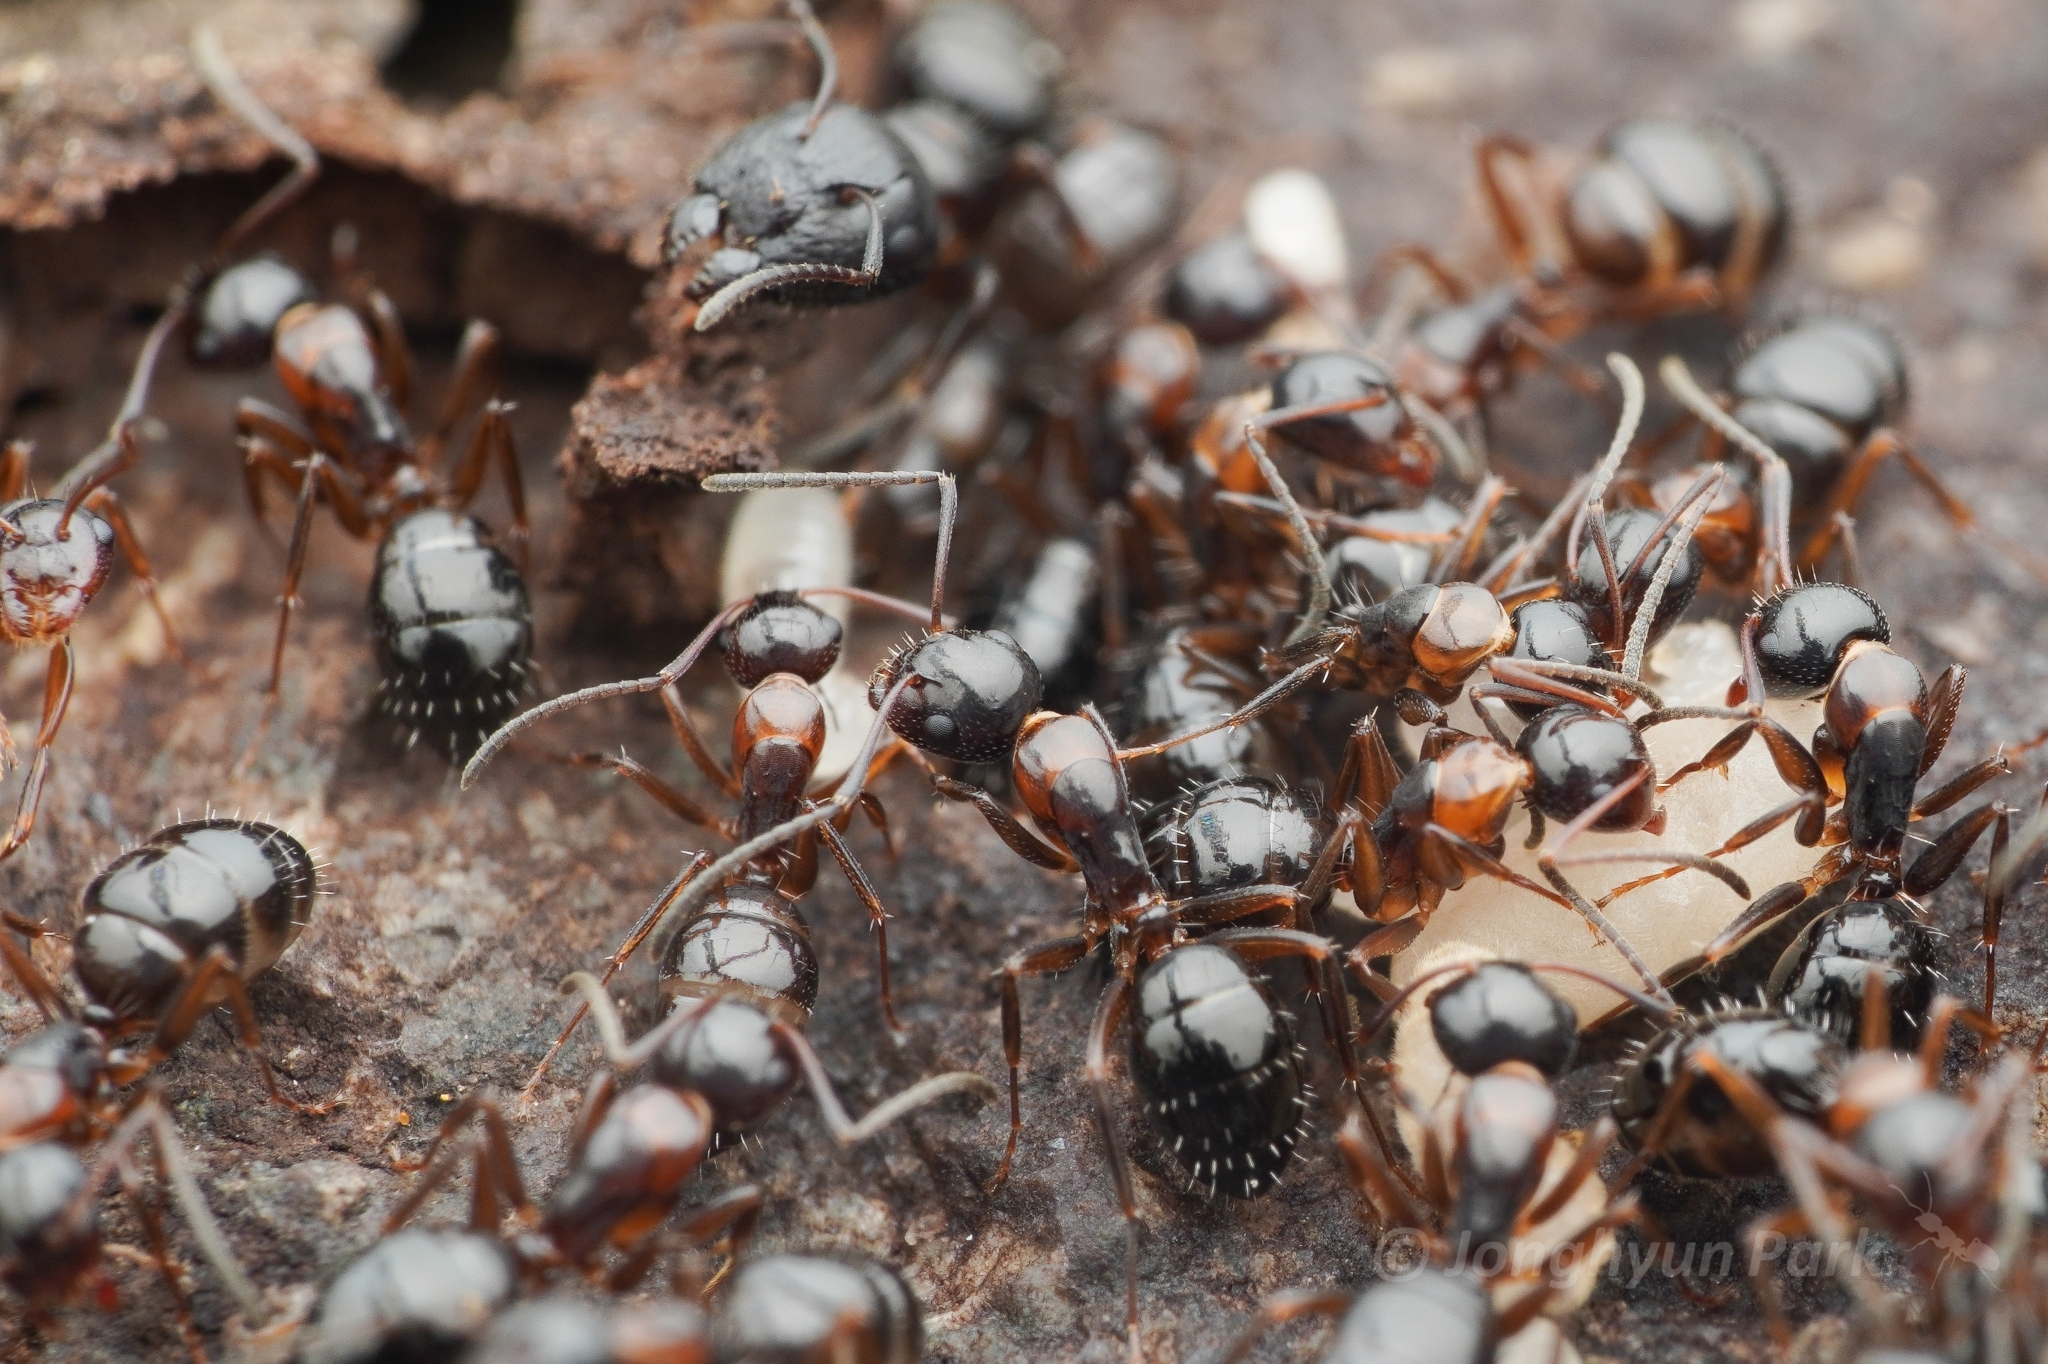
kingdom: Animalia
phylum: Arthropoda
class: Insecta
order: Hymenoptera
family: Formicidae
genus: Camponotus
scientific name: Camponotus vitiosus
